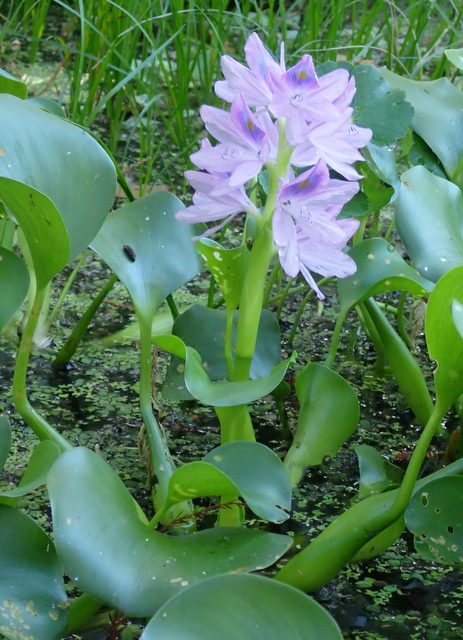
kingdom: Plantae
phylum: Tracheophyta
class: Liliopsida
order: Commelinales
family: Pontederiaceae
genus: Pontederia
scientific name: Pontederia crassipes
